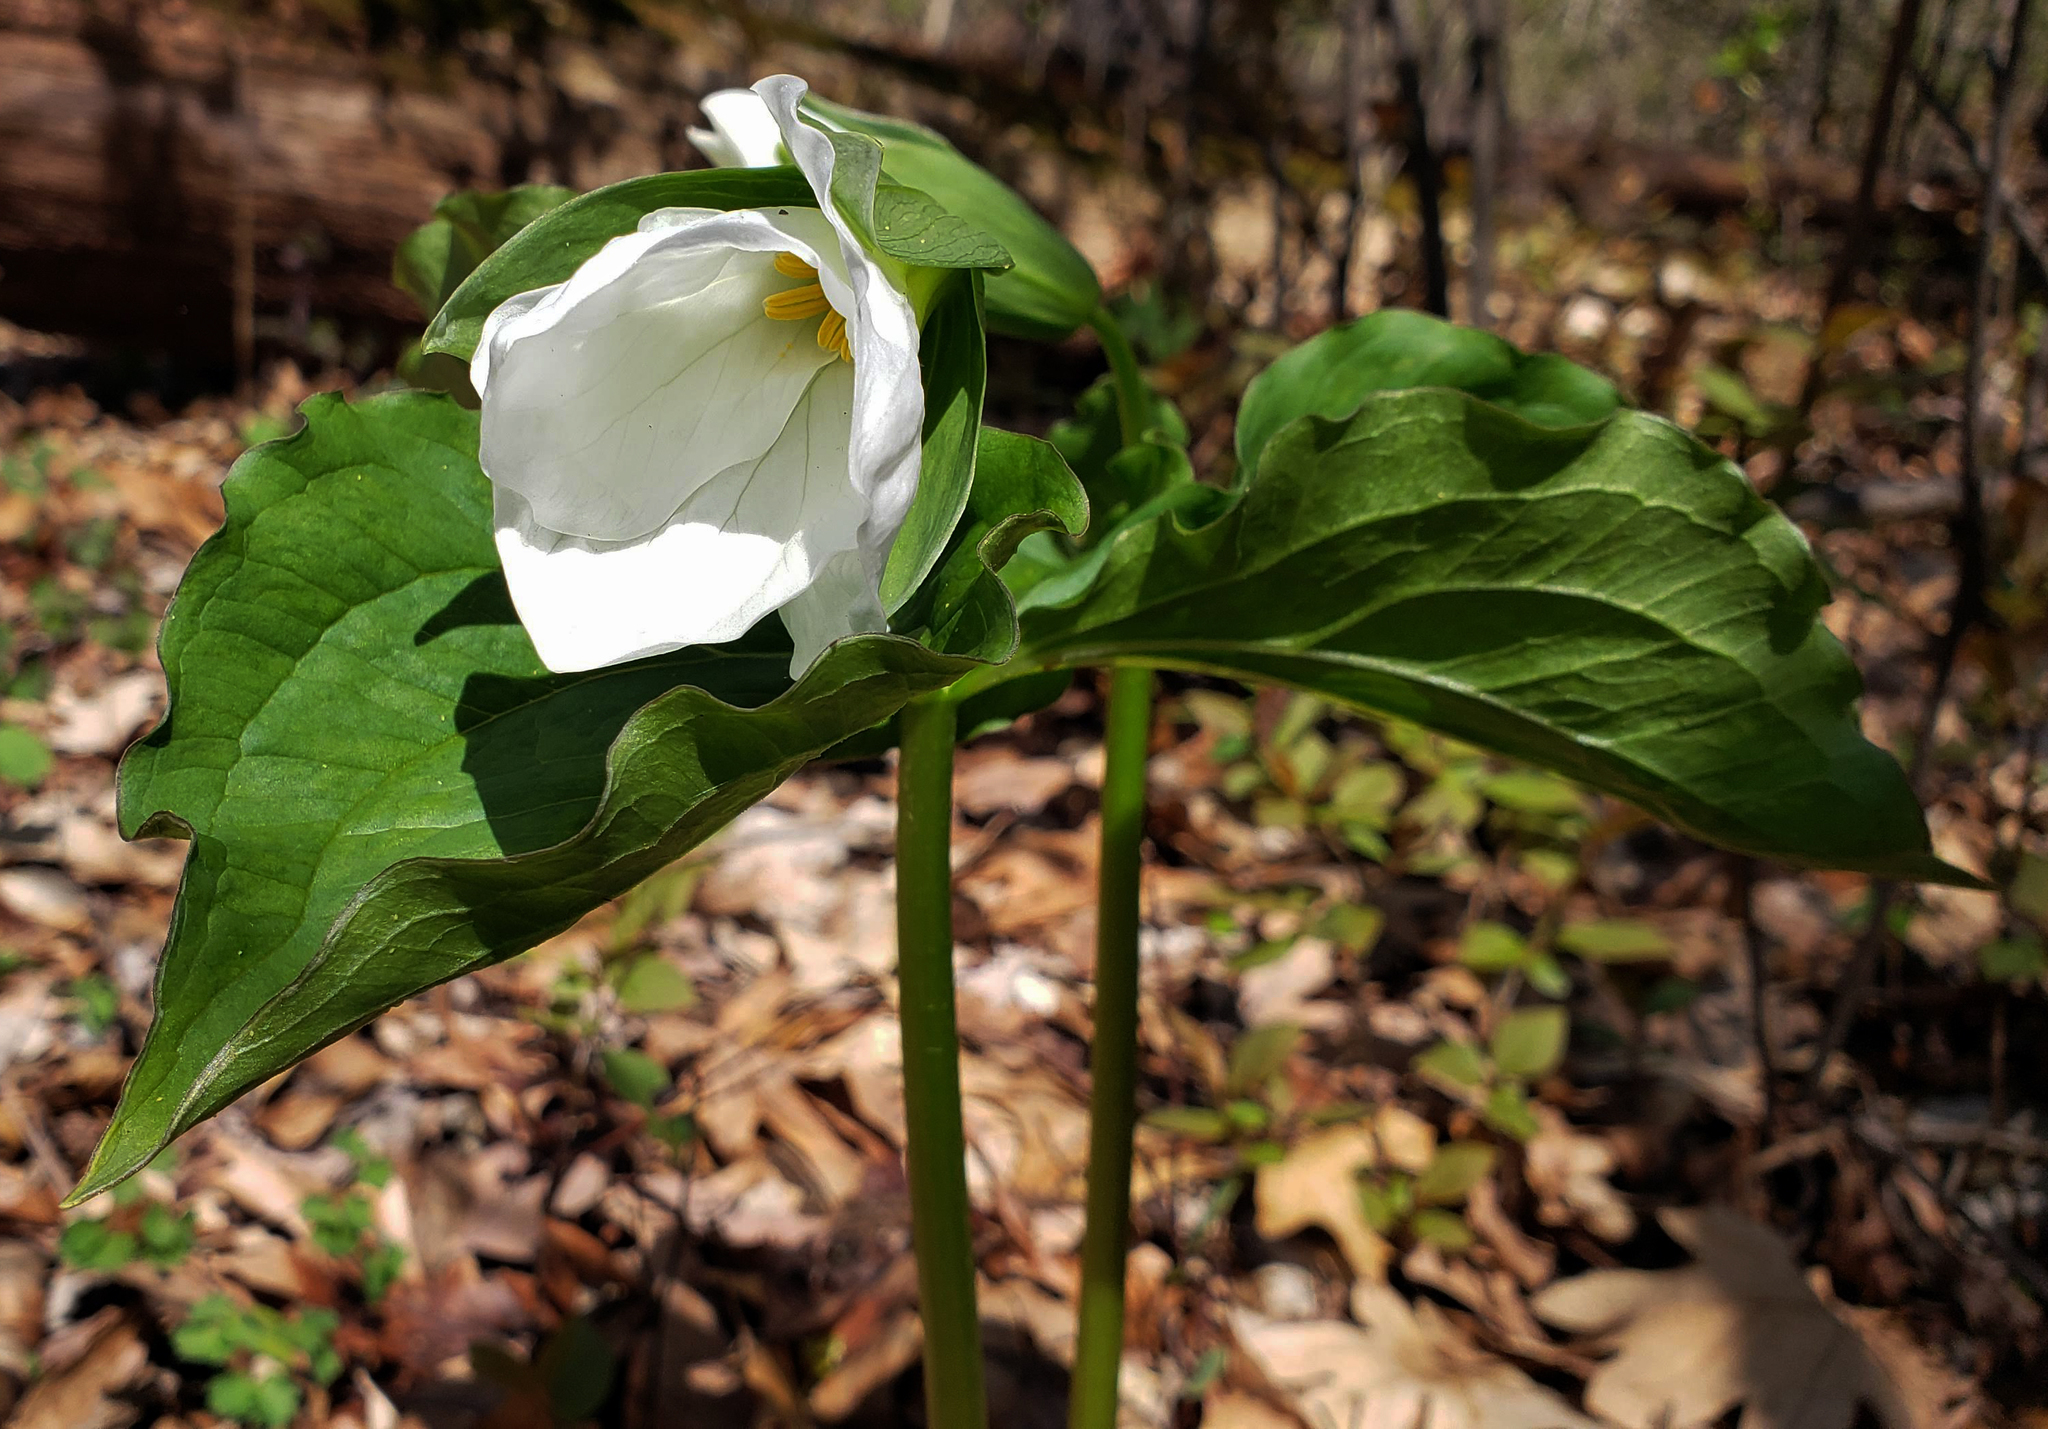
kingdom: Plantae
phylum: Tracheophyta
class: Liliopsida
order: Liliales
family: Melanthiaceae
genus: Trillium
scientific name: Trillium grandiflorum
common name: Great white trillium
